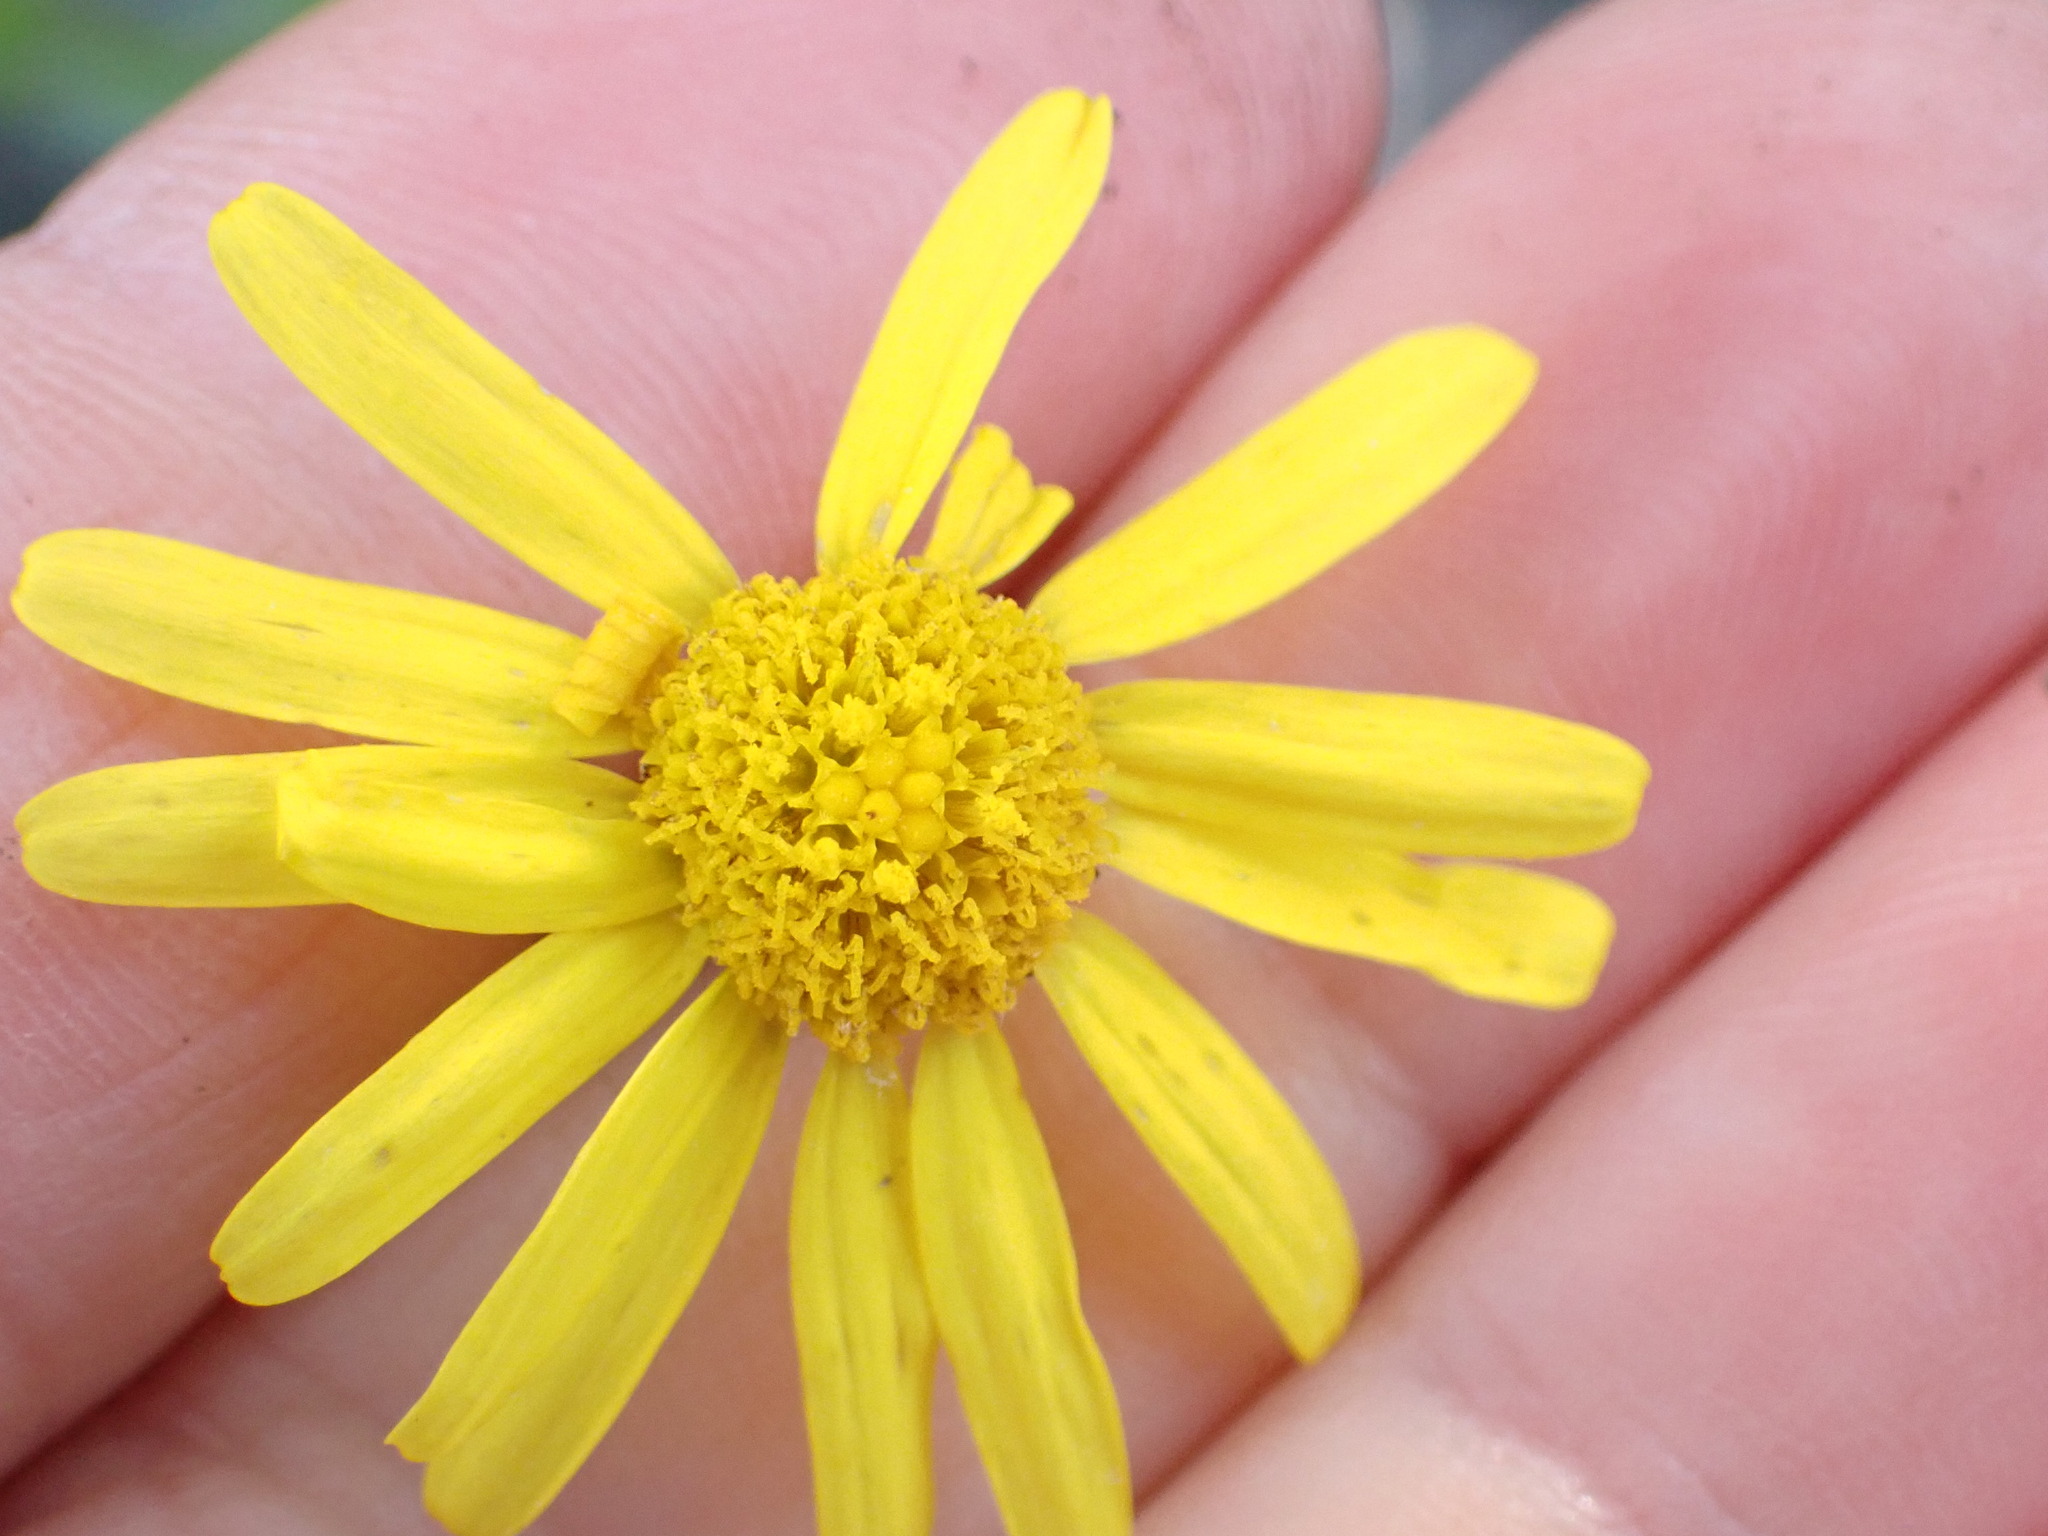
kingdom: Plantae
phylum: Tracheophyta
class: Magnoliopsida
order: Asterales
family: Asteraceae
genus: Senecio
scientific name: Senecio skirrhodon
